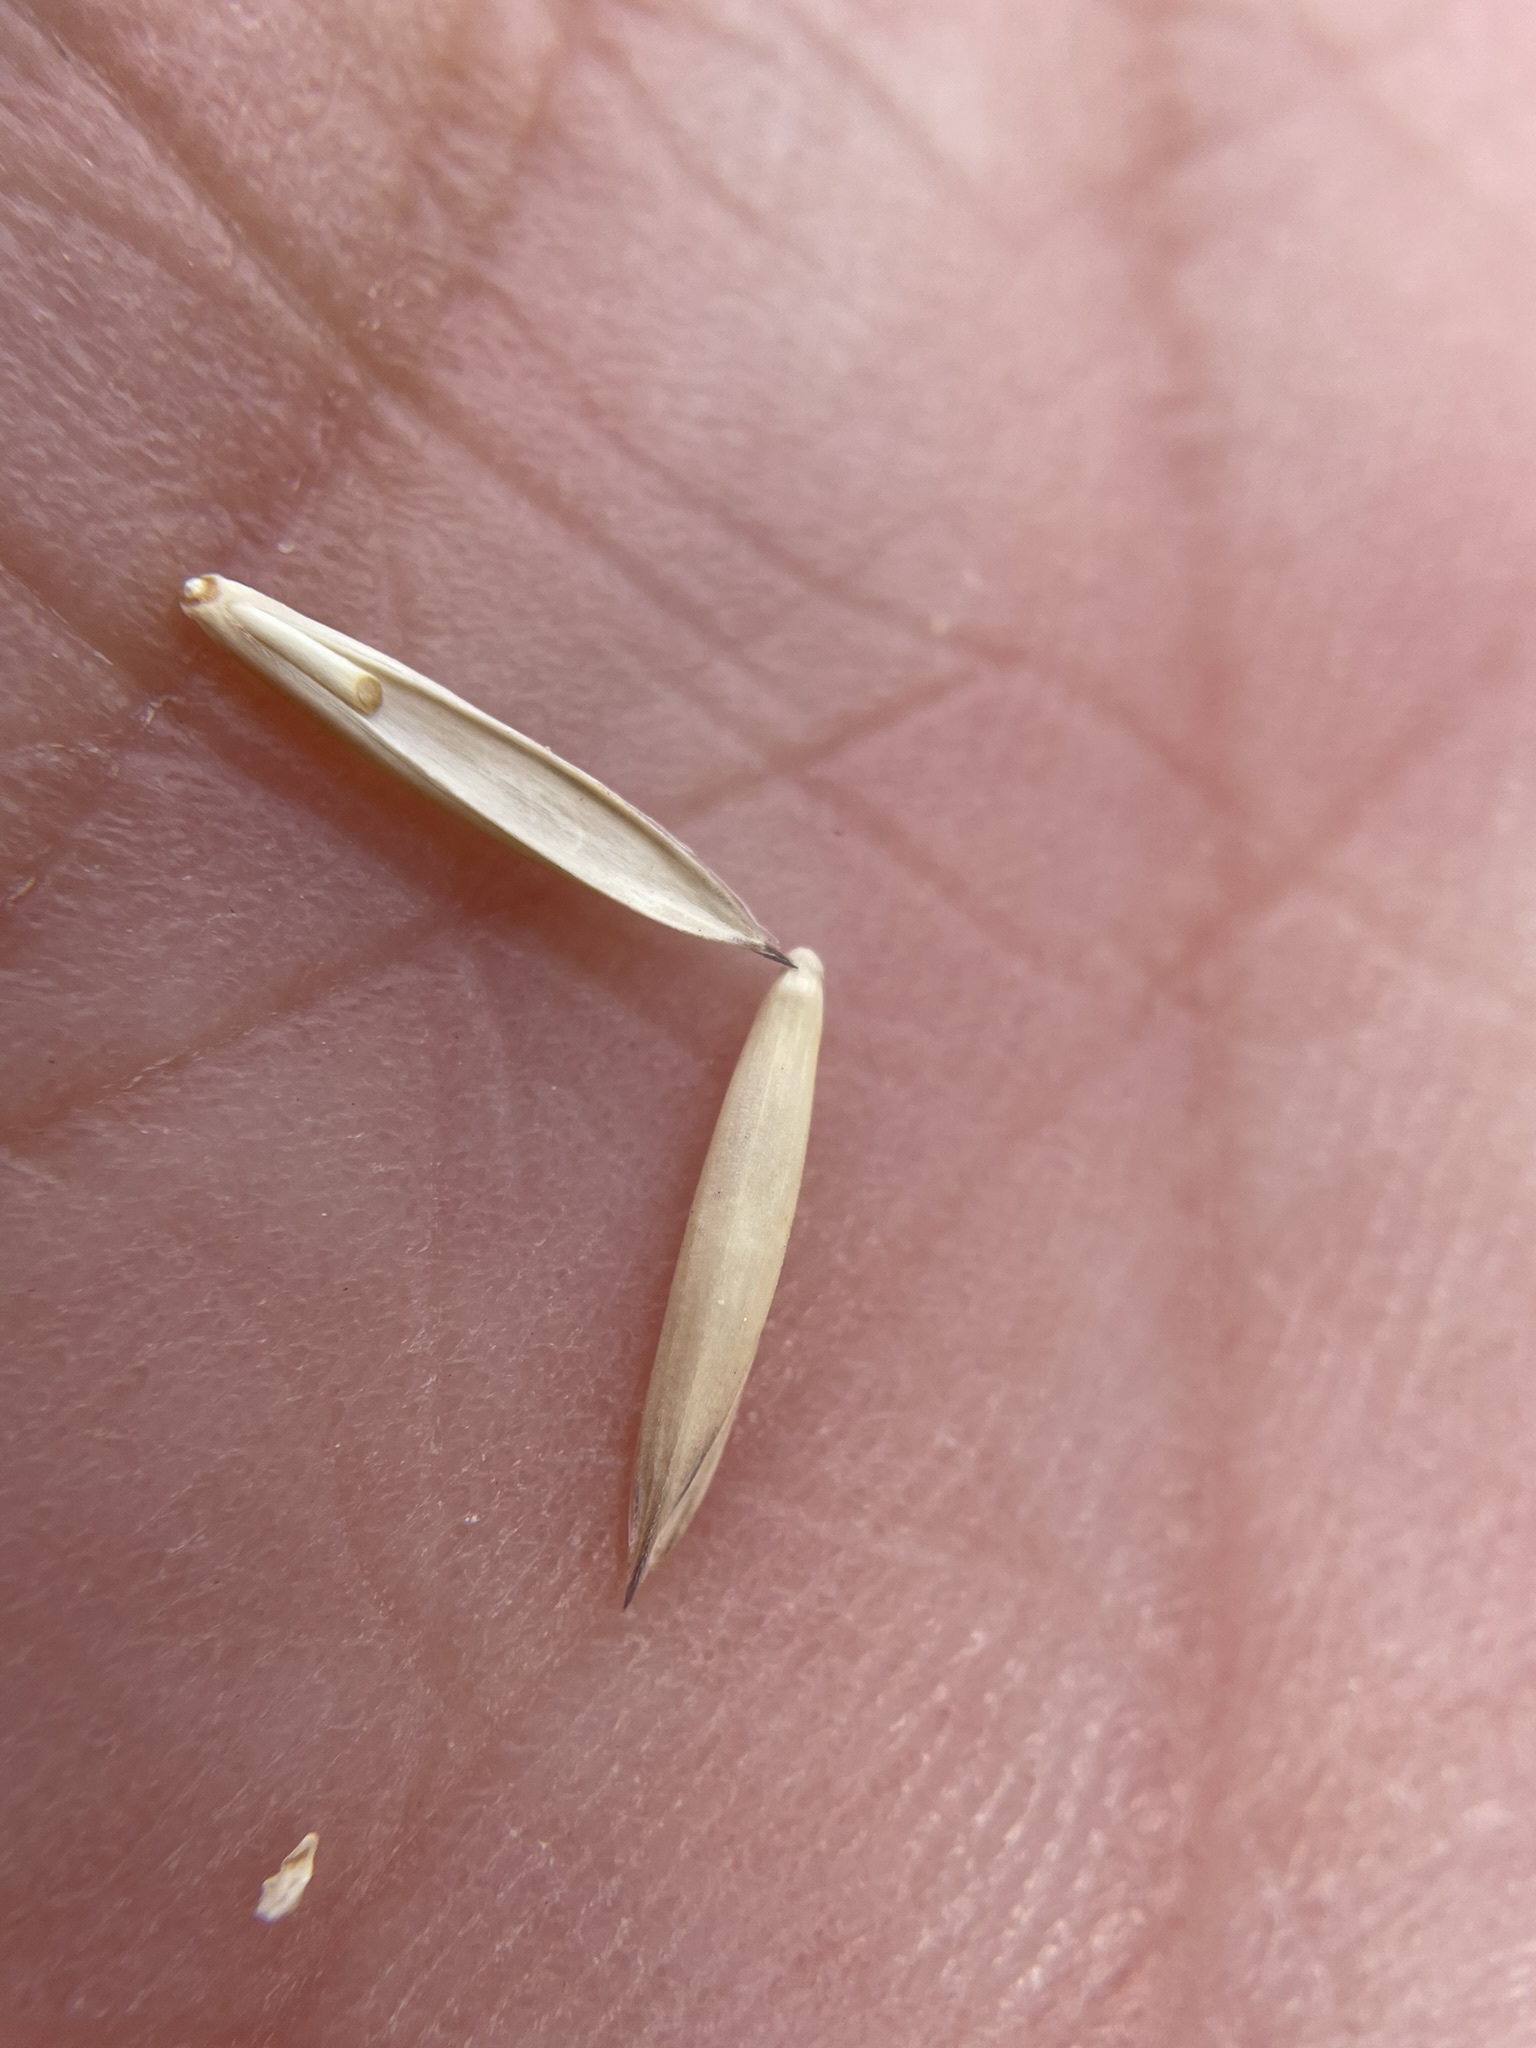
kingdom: Plantae
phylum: Tracheophyta
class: Liliopsida
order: Poales
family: Poaceae
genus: Elymus
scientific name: Elymus violaceus
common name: Arctic wheatgrass
